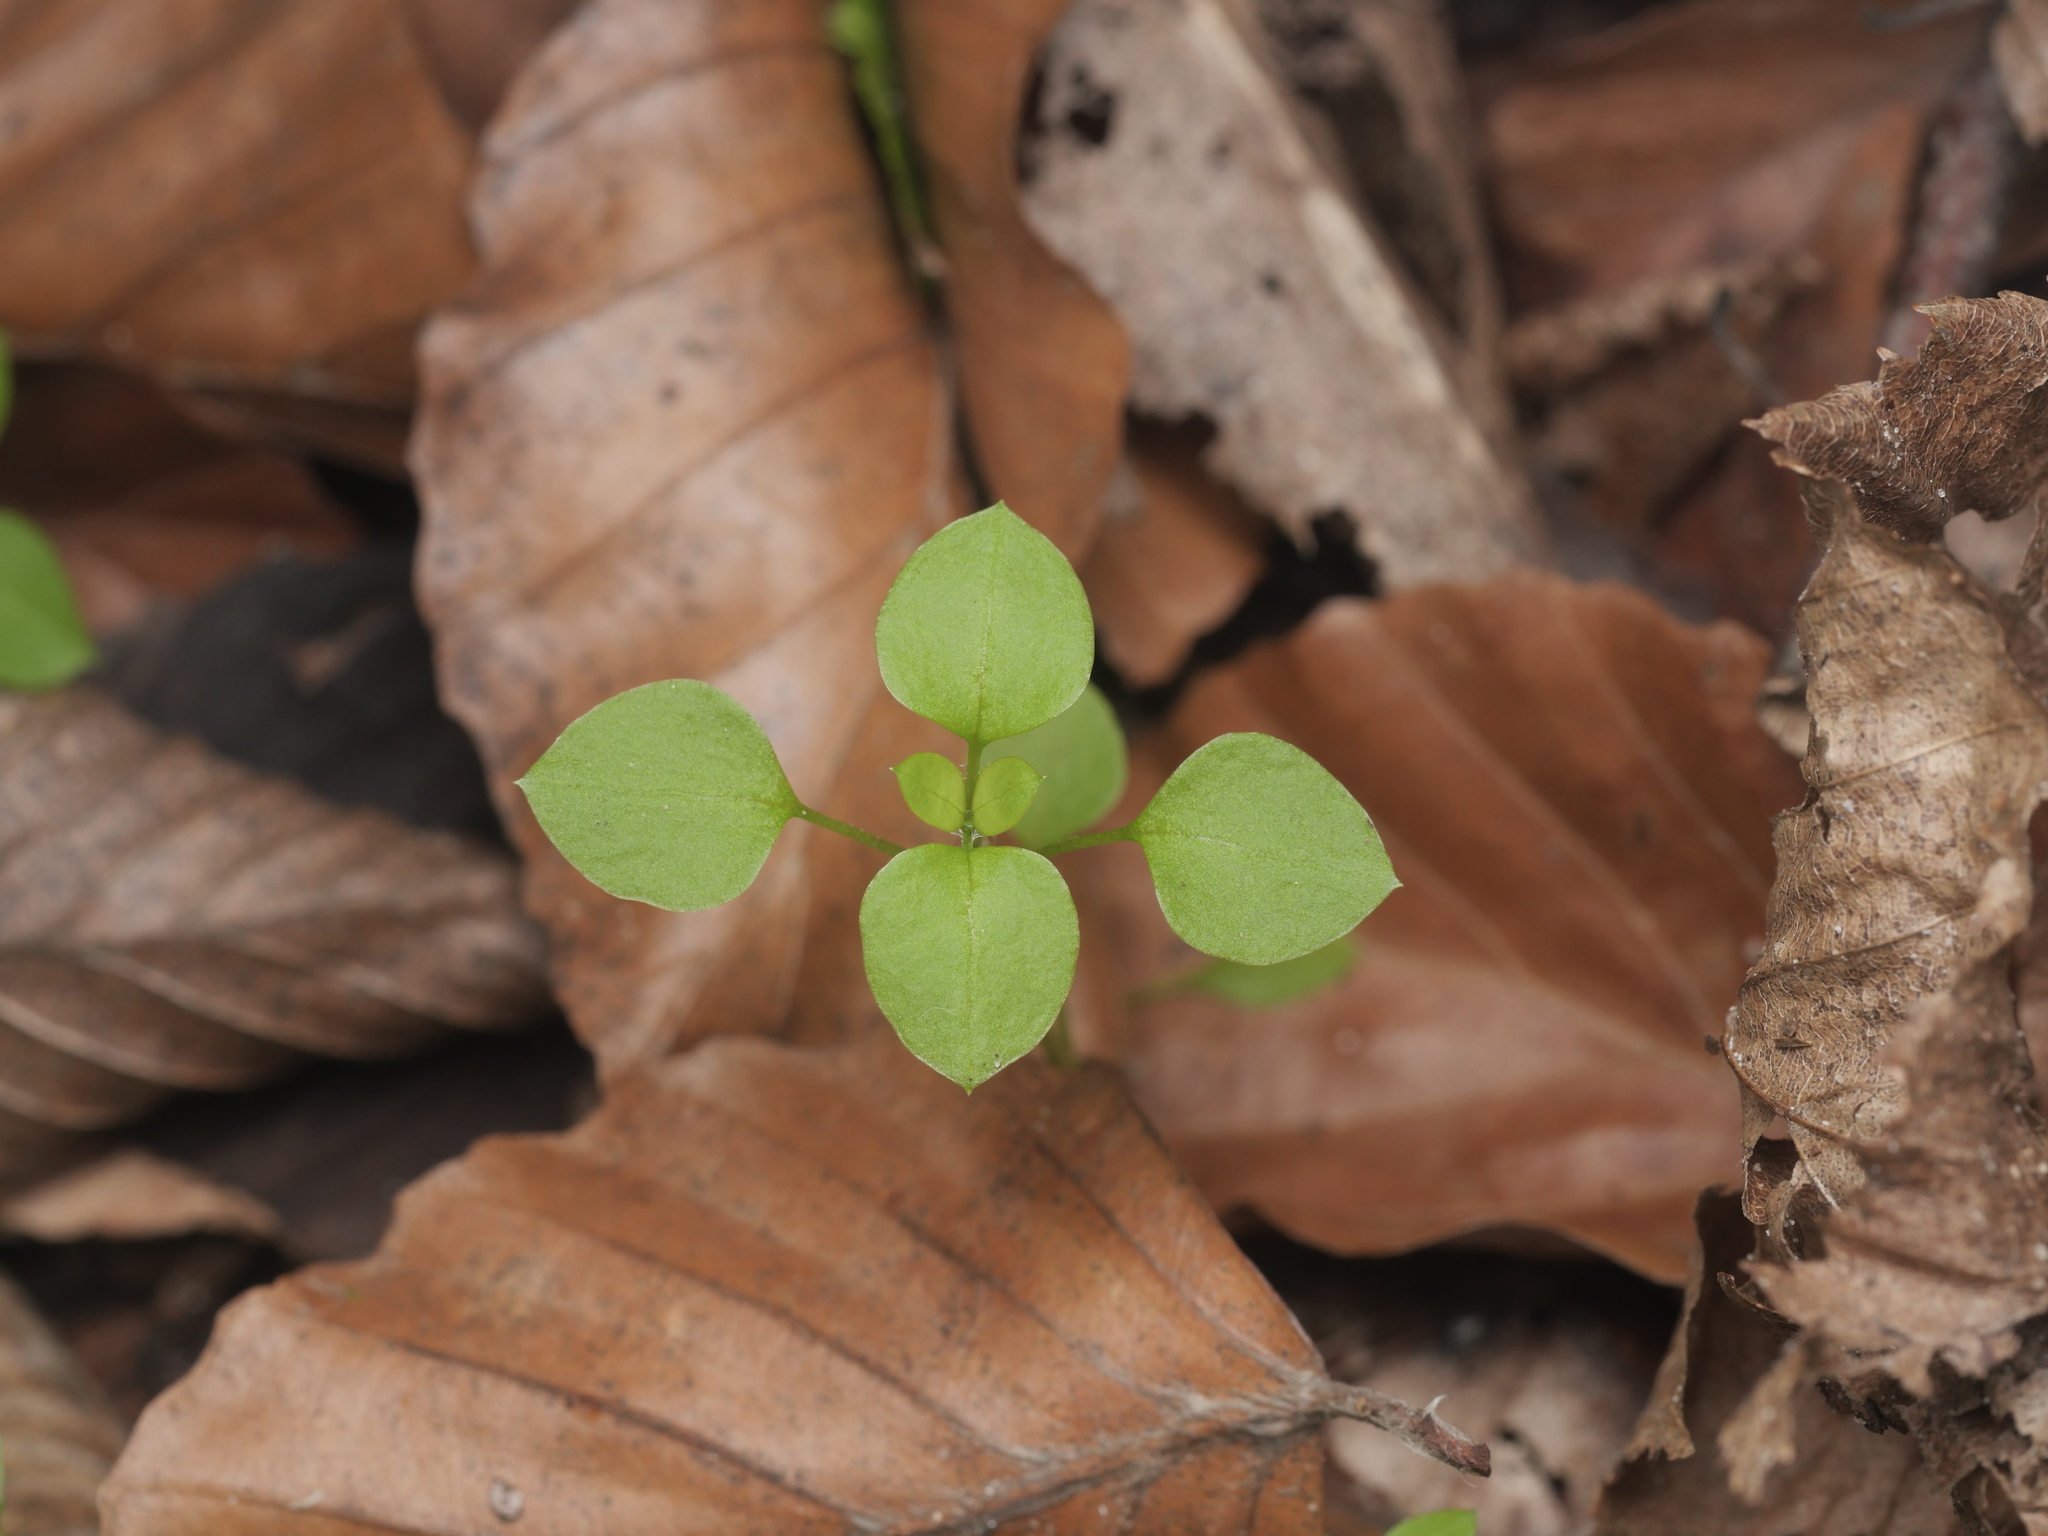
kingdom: Plantae
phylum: Tracheophyta
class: Magnoliopsida
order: Caryophyllales
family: Caryophyllaceae
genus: Moehringia
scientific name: Moehringia trinervia
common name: Three-nerved sandwort
